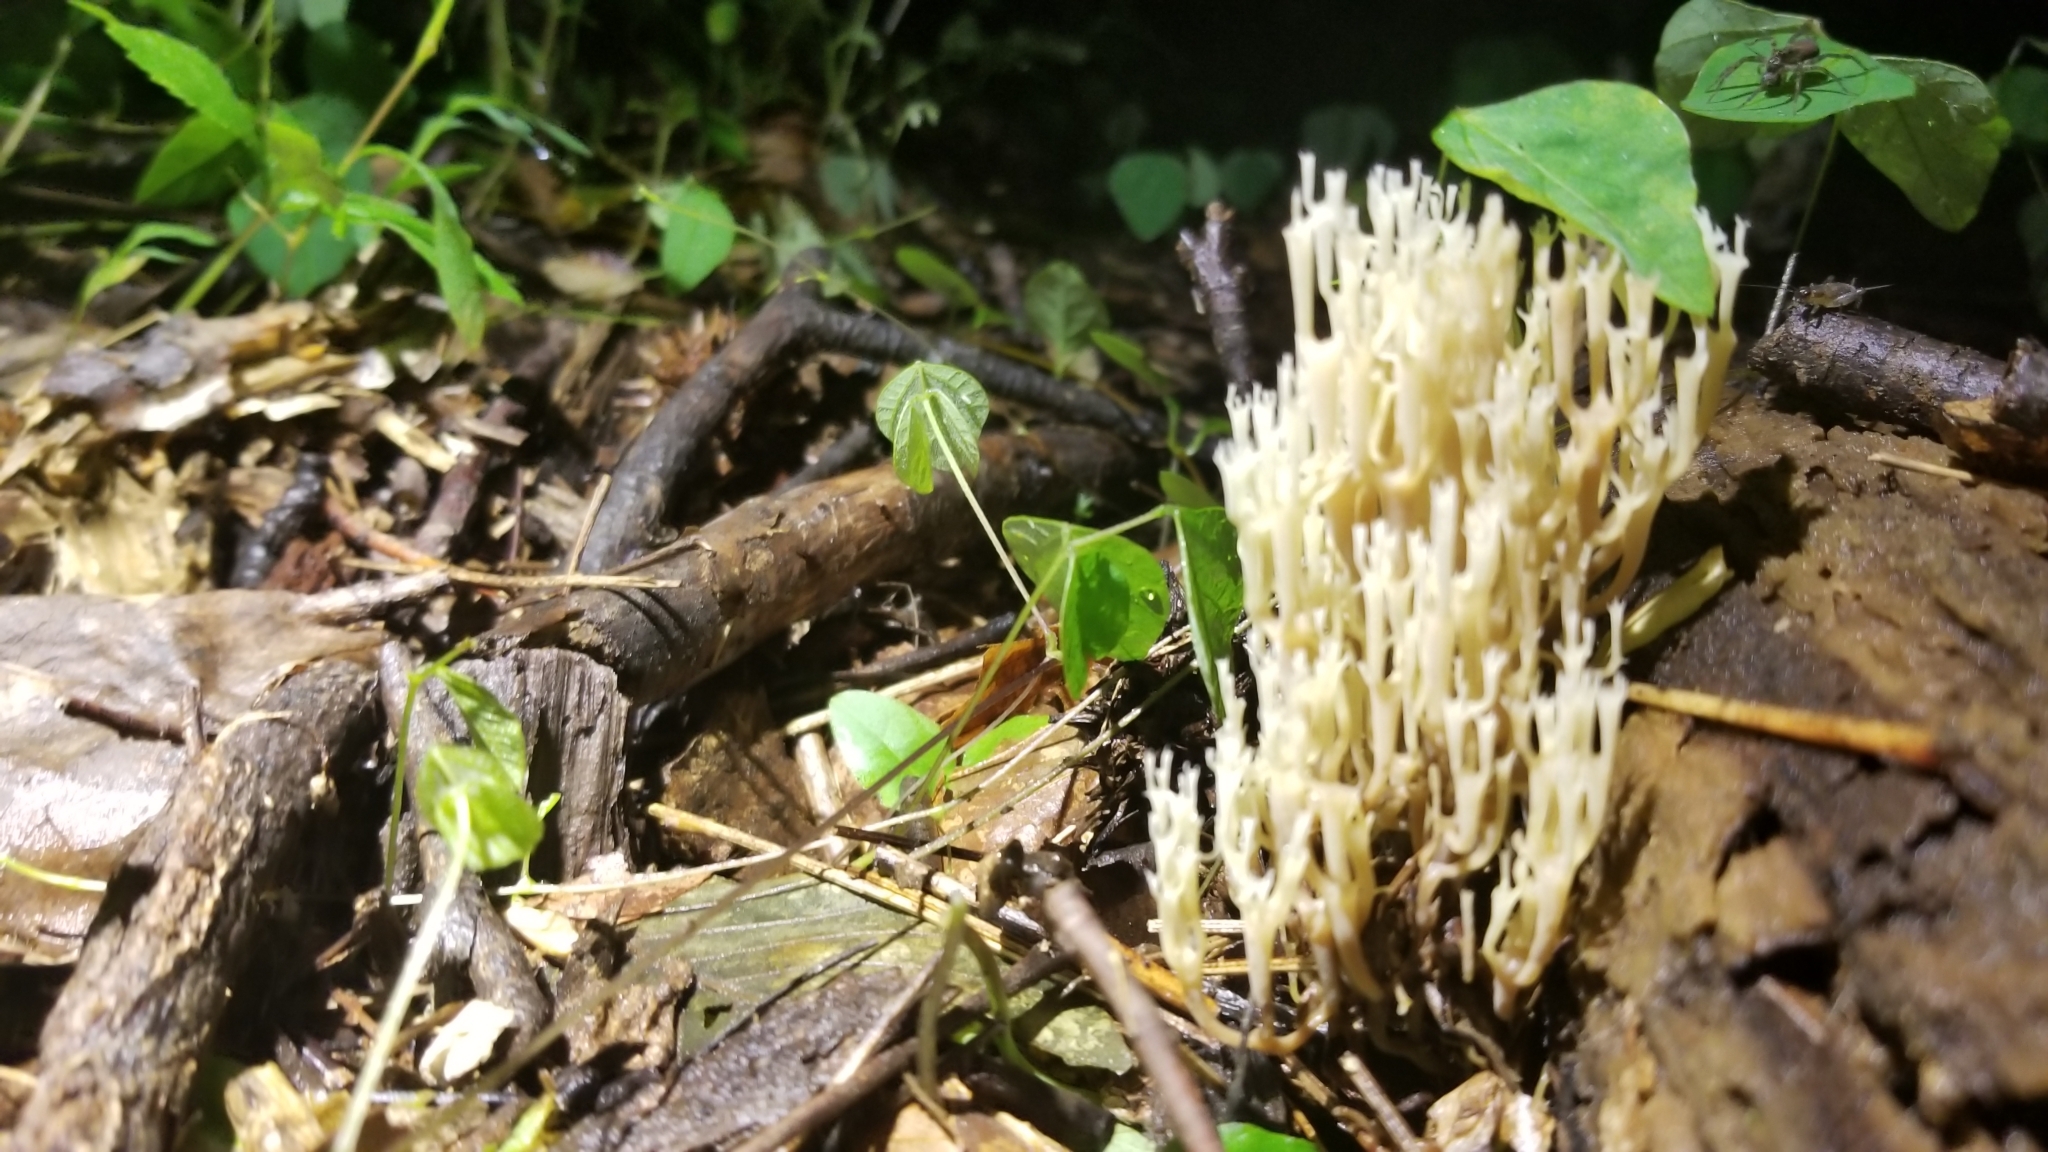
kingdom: Fungi
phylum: Basidiomycota
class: Agaricomycetes
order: Russulales
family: Auriscalpiaceae
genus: Artomyces
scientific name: Artomyces pyxidatus
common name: Crown-tipped coral fungus
